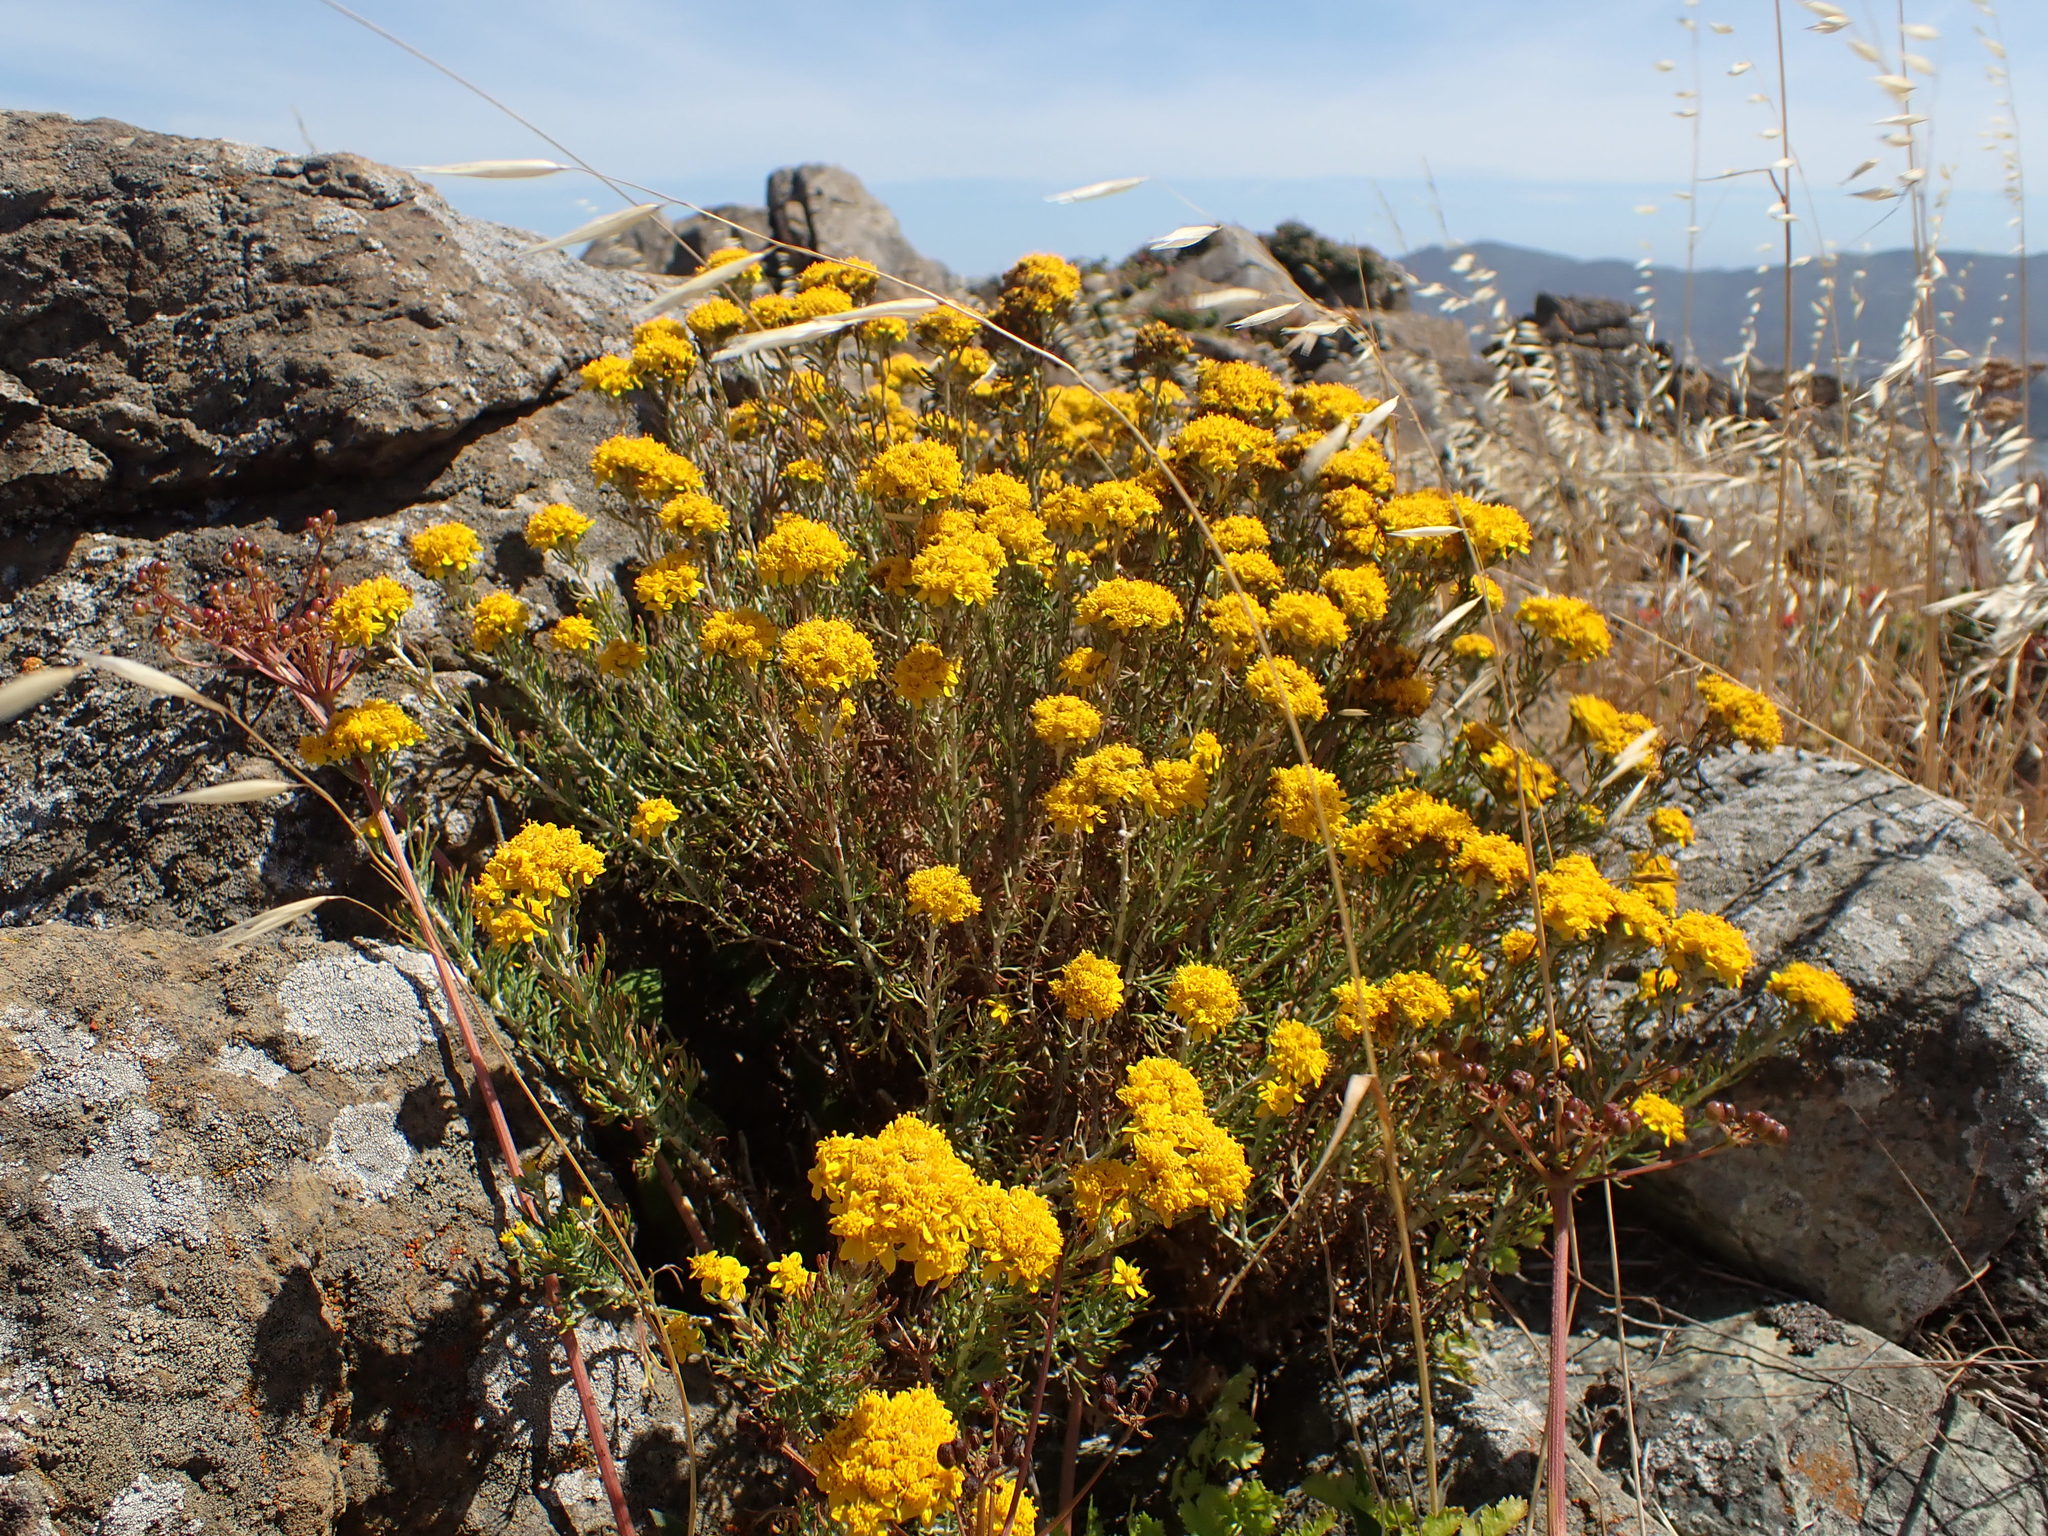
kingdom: Plantae
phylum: Tracheophyta
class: Magnoliopsida
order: Asterales
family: Asteraceae
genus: Eriophyllum
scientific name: Eriophyllum confertiflorum
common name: Golden-yarrow
